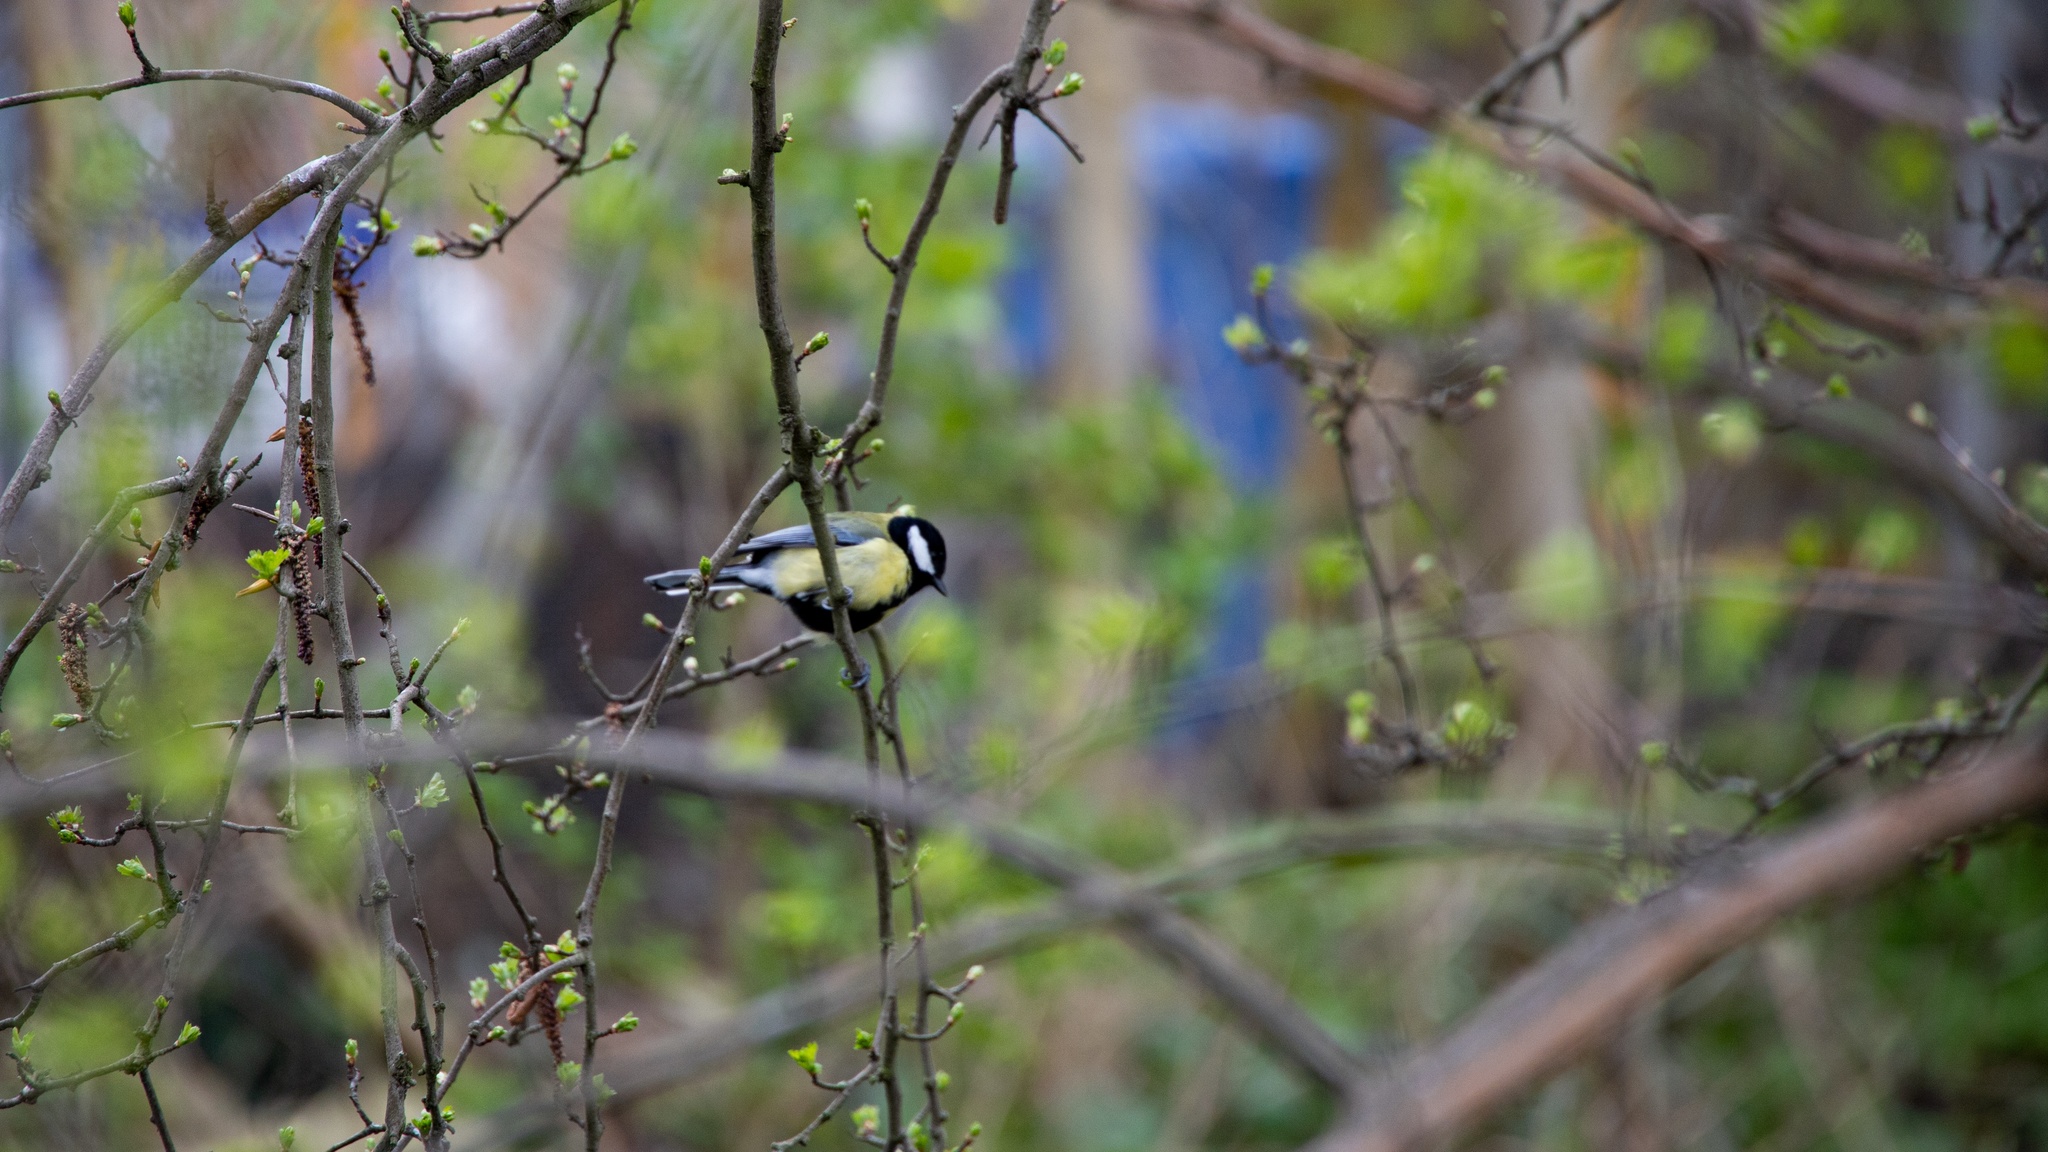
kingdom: Animalia
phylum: Chordata
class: Aves
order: Passeriformes
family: Paridae
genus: Parus
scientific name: Parus major
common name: Great tit
